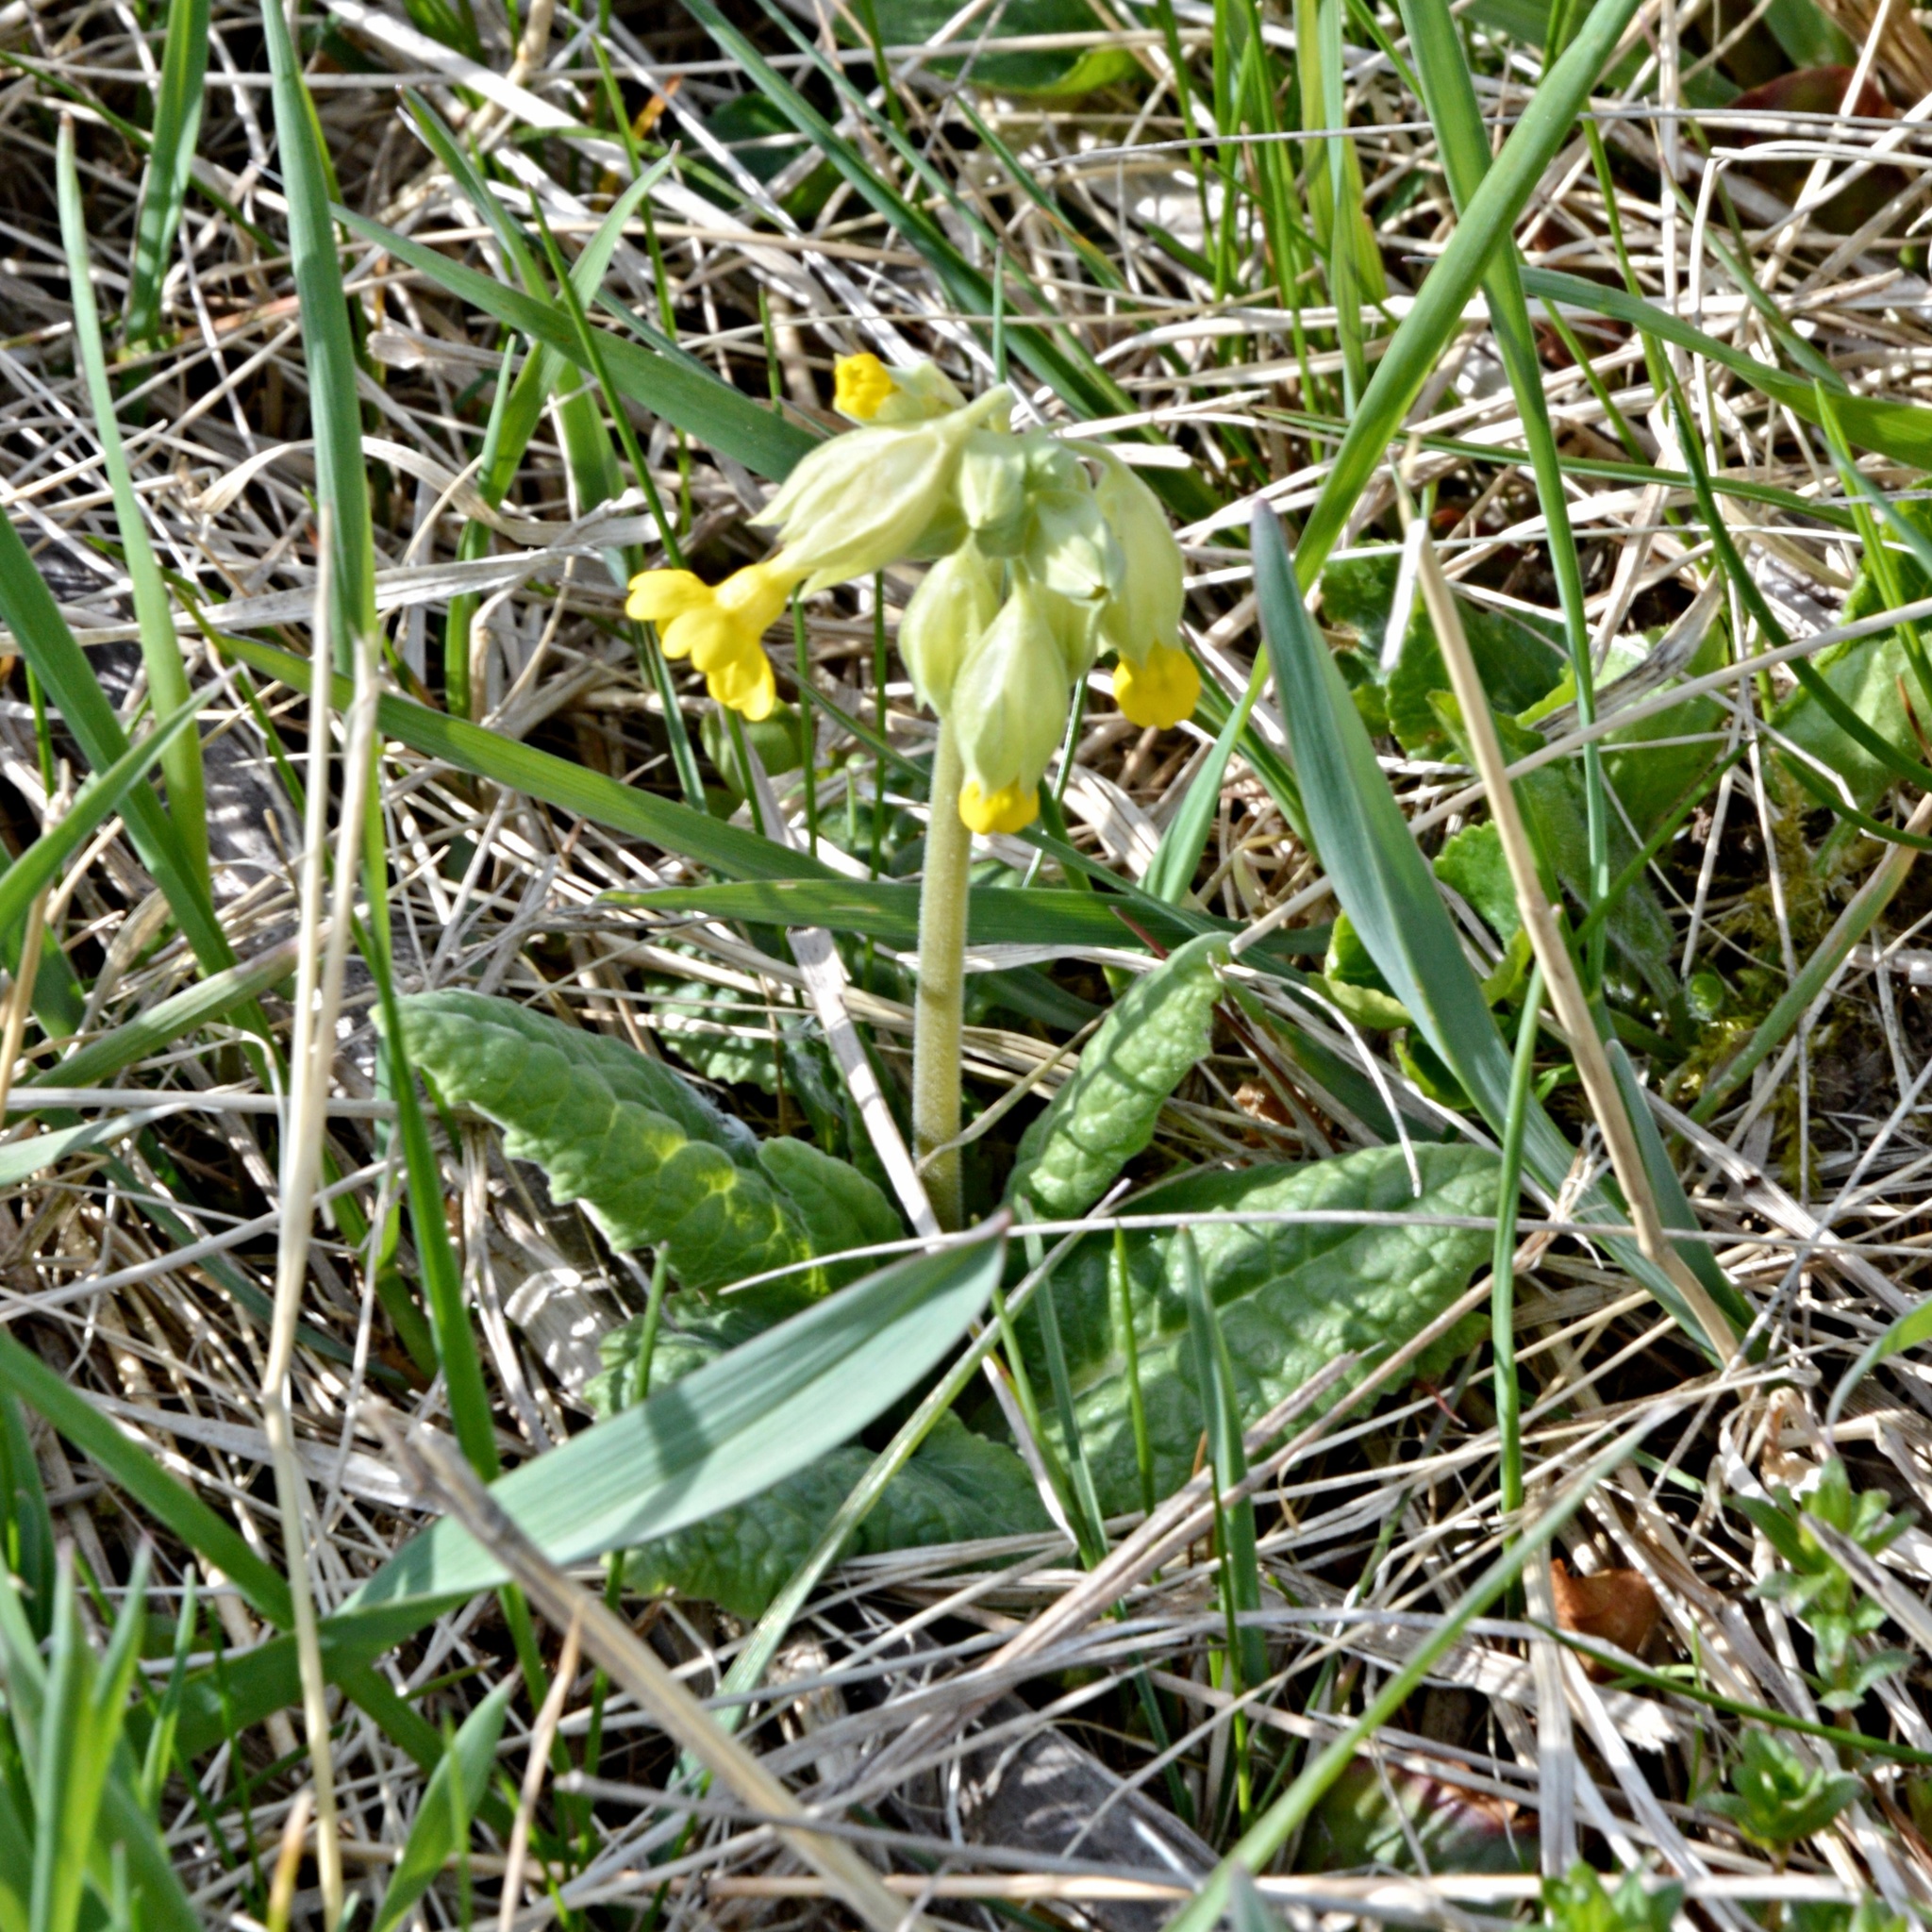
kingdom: Plantae
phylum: Tracheophyta
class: Magnoliopsida
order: Ericales
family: Primulaceae
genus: Primula
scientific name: Primula veris
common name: Cowslip
